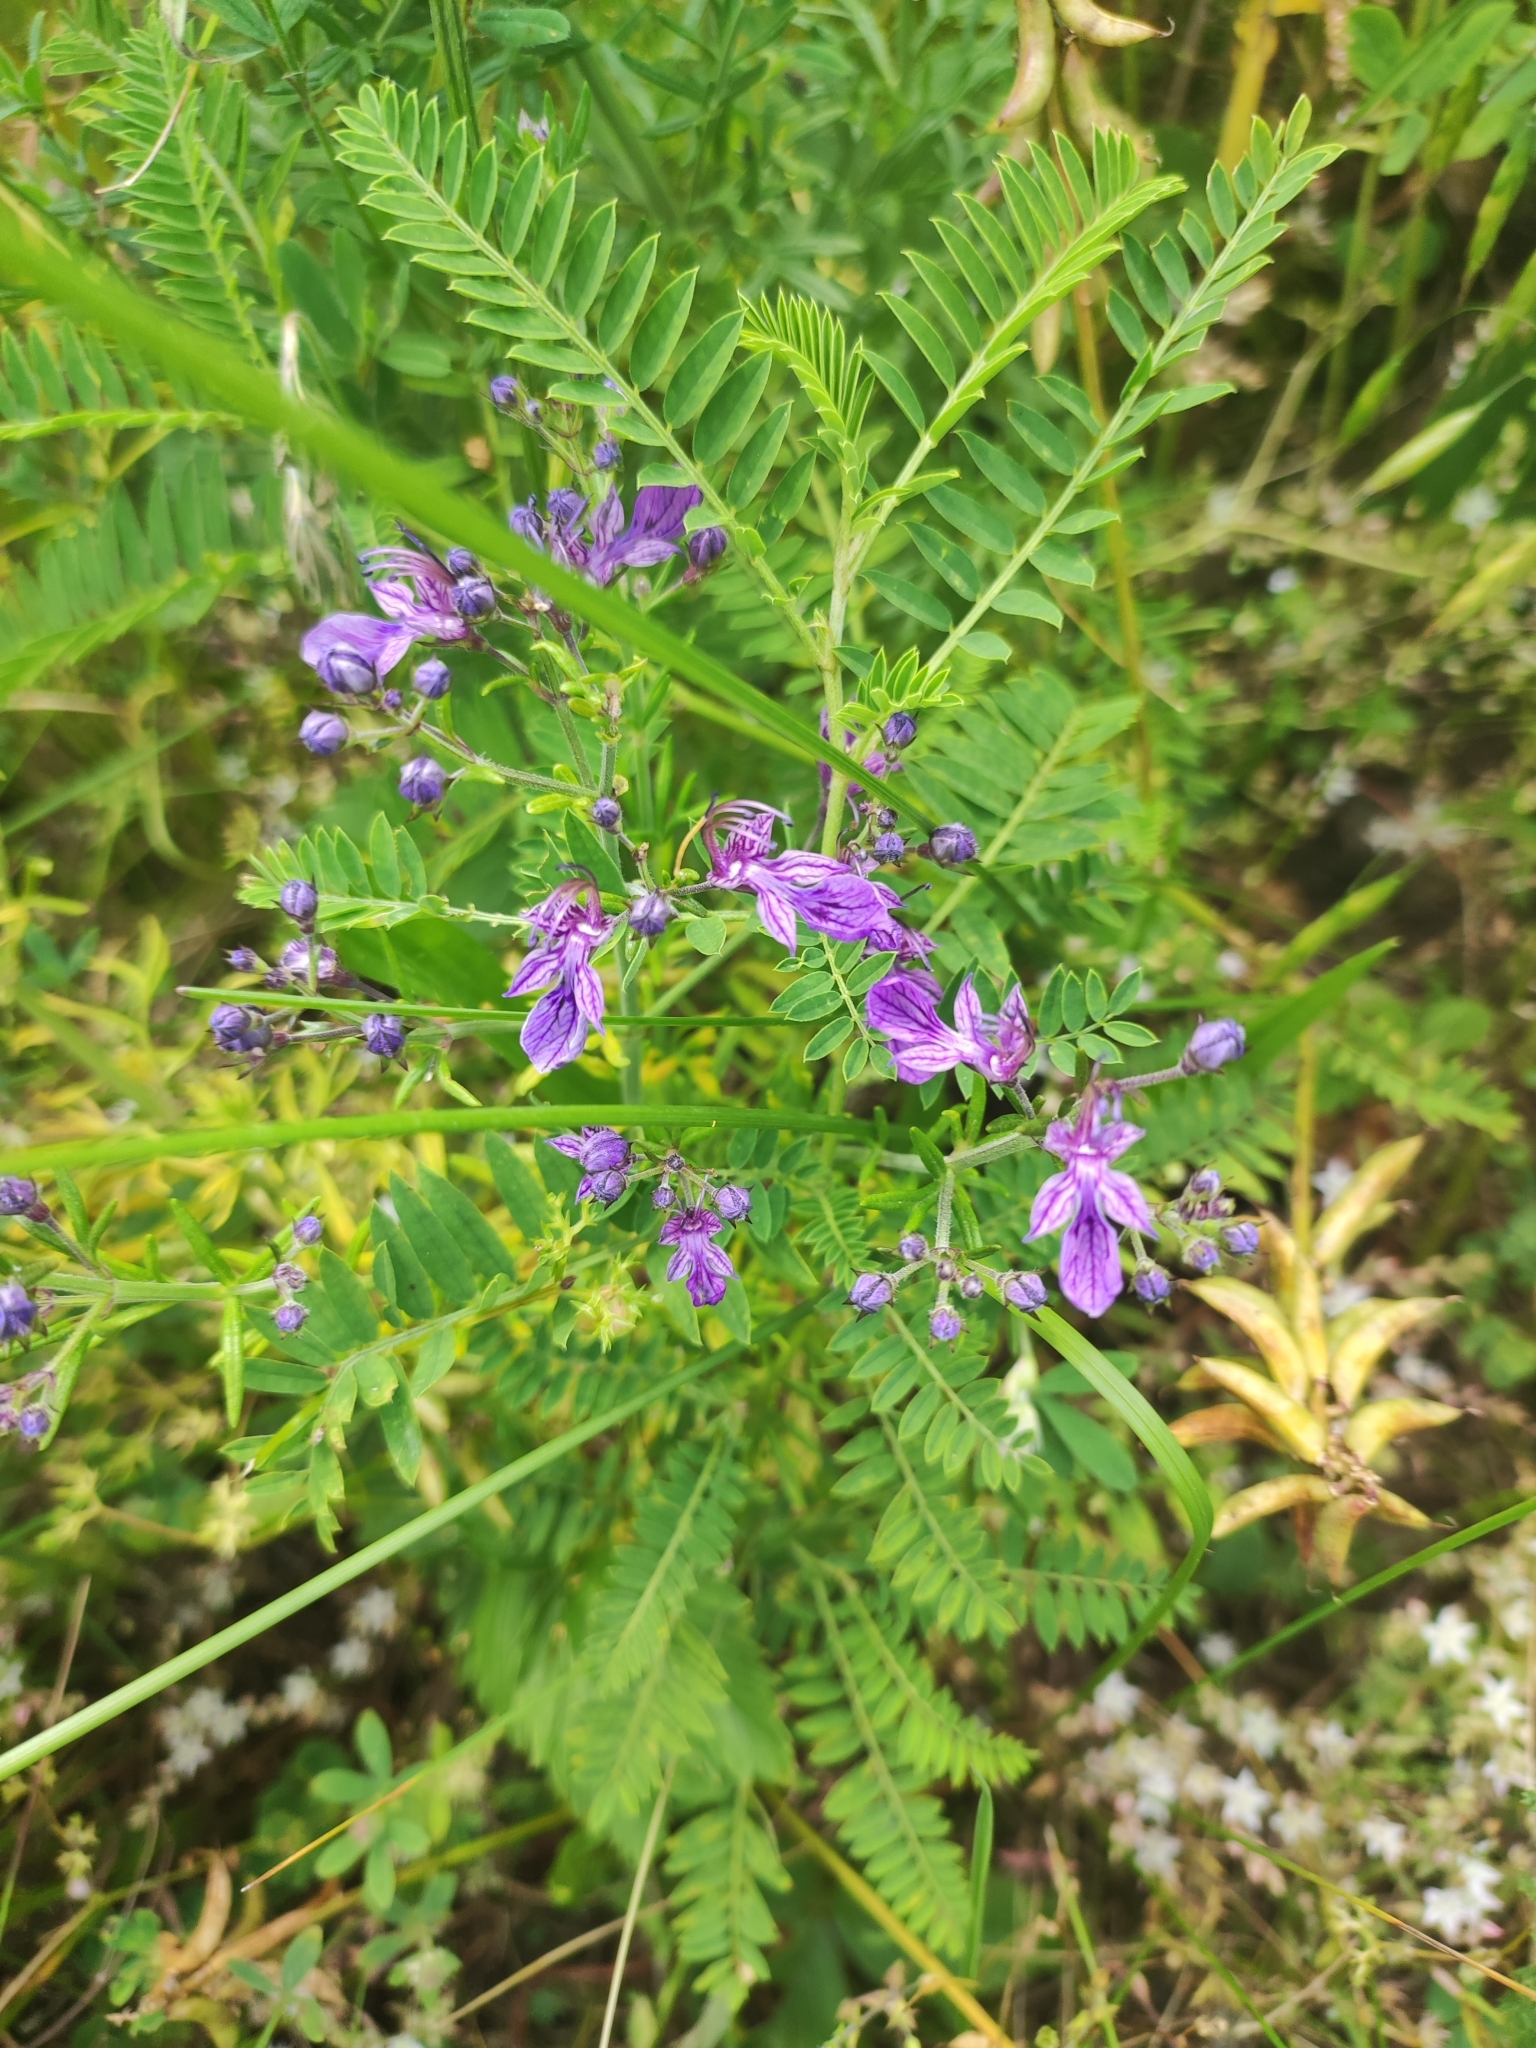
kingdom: Plantae
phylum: Tracheophyta
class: Magnoliopsida
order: Lamiales
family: Lamiaceae
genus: Teucrium
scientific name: Teucrium orientale
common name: Oriental germander
